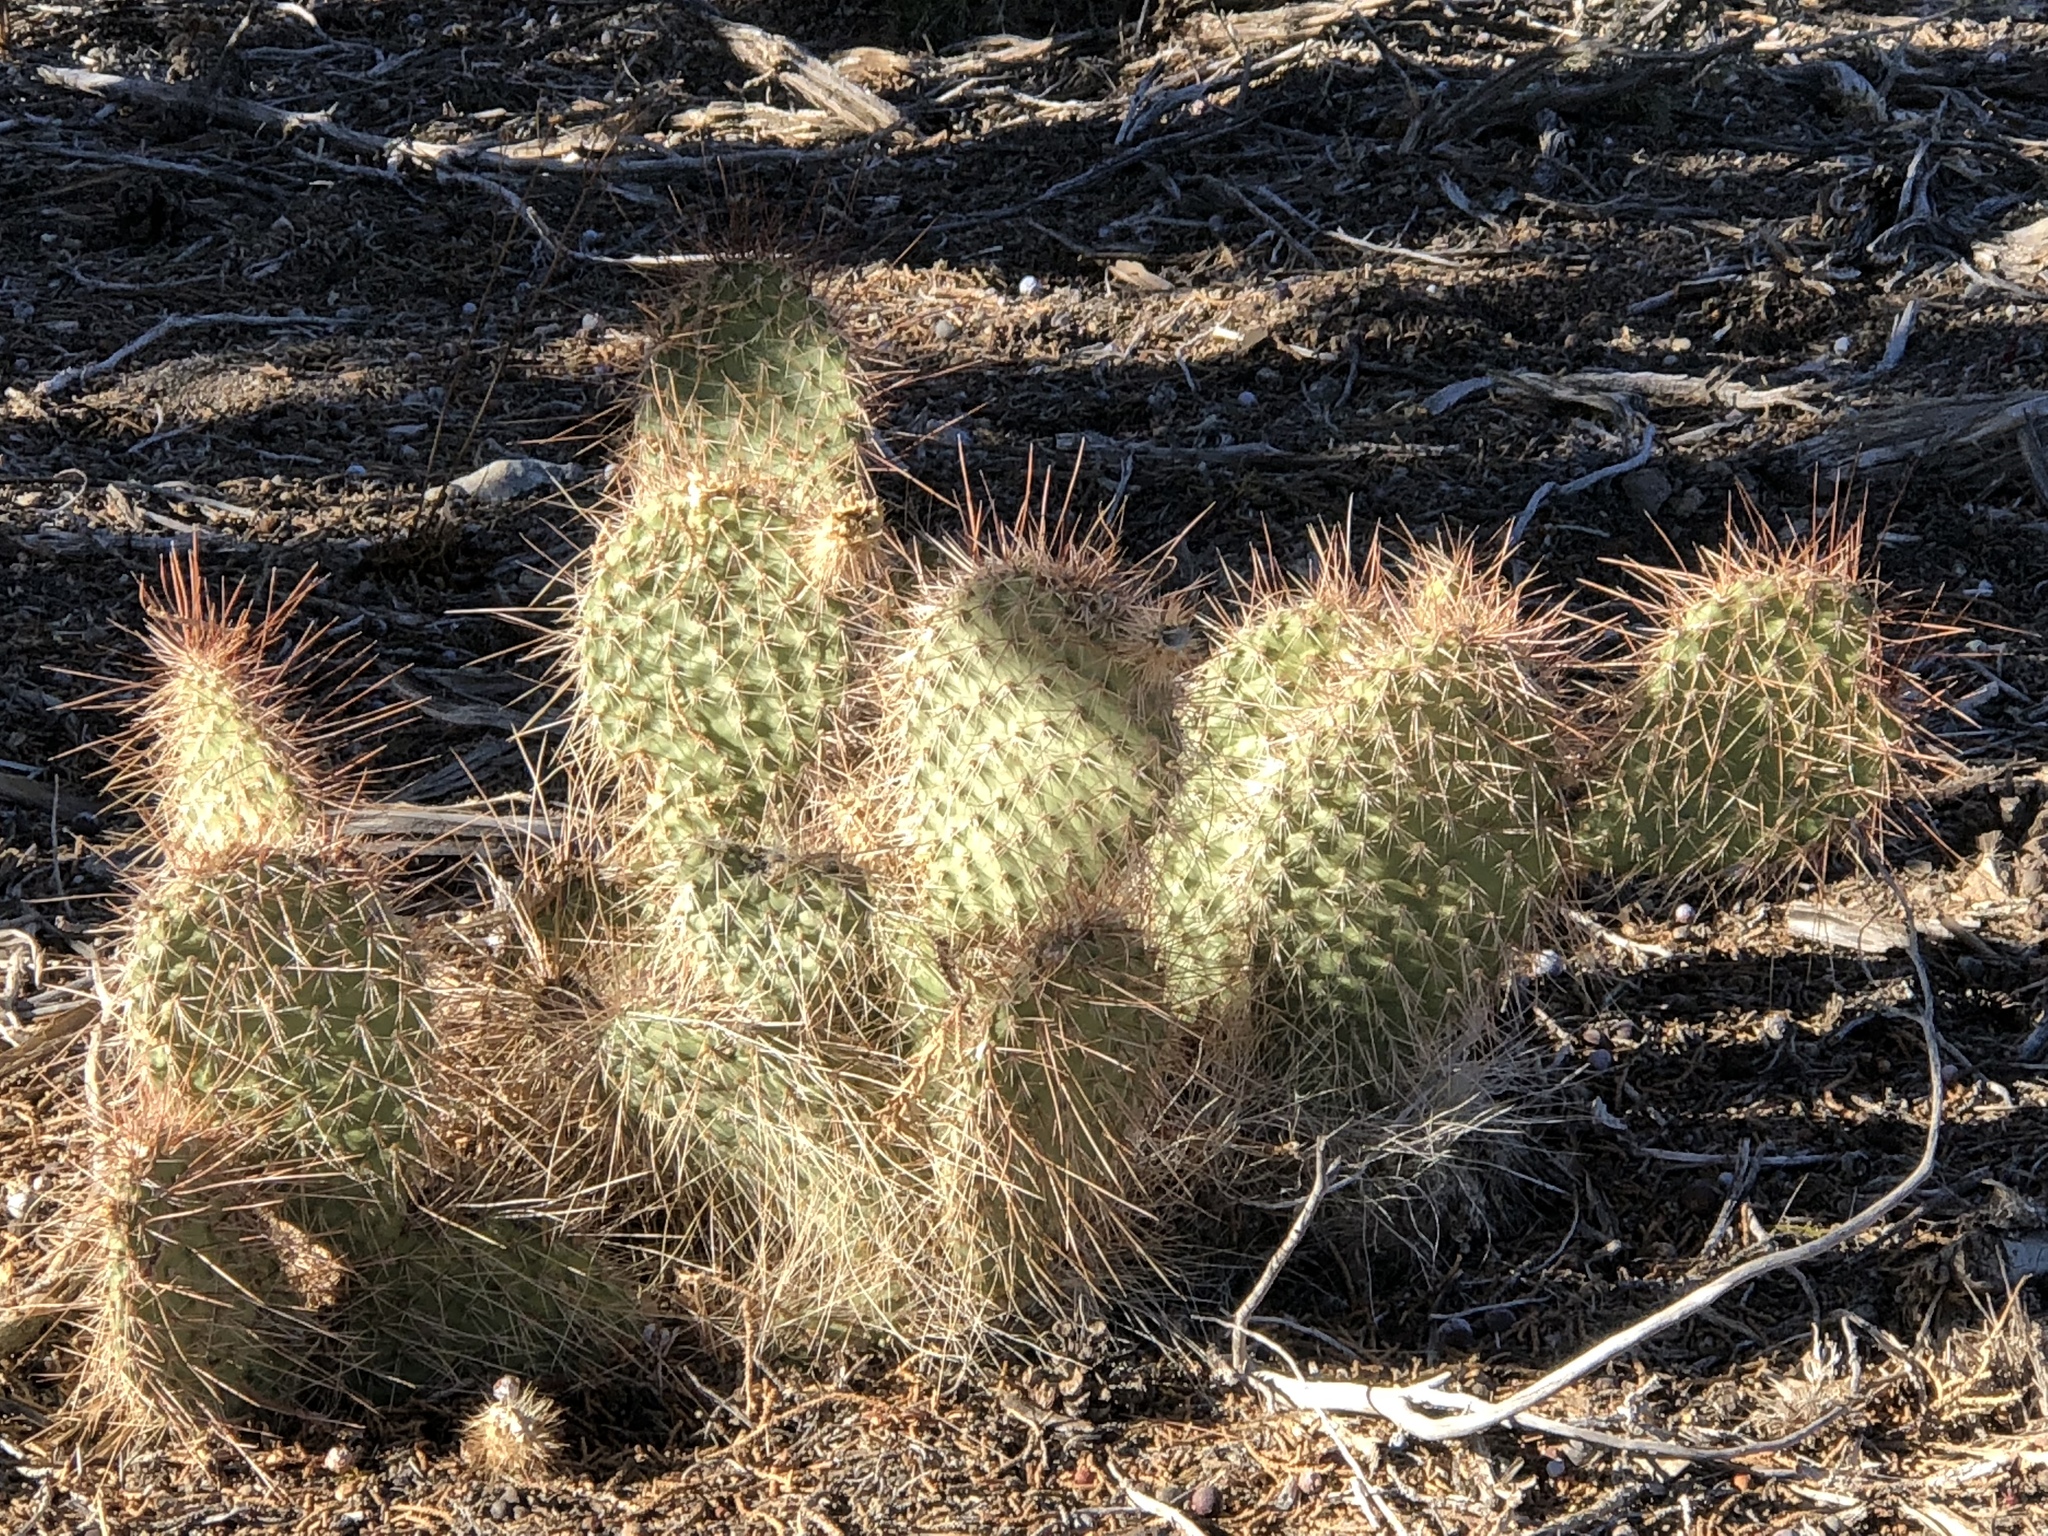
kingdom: Plantae
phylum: Tracheophyta
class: Magnoliopsida
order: Caryophyllales
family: Cactaceae
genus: Opuntia
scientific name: Opuntia polyacantha
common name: Plains prickly-pear
